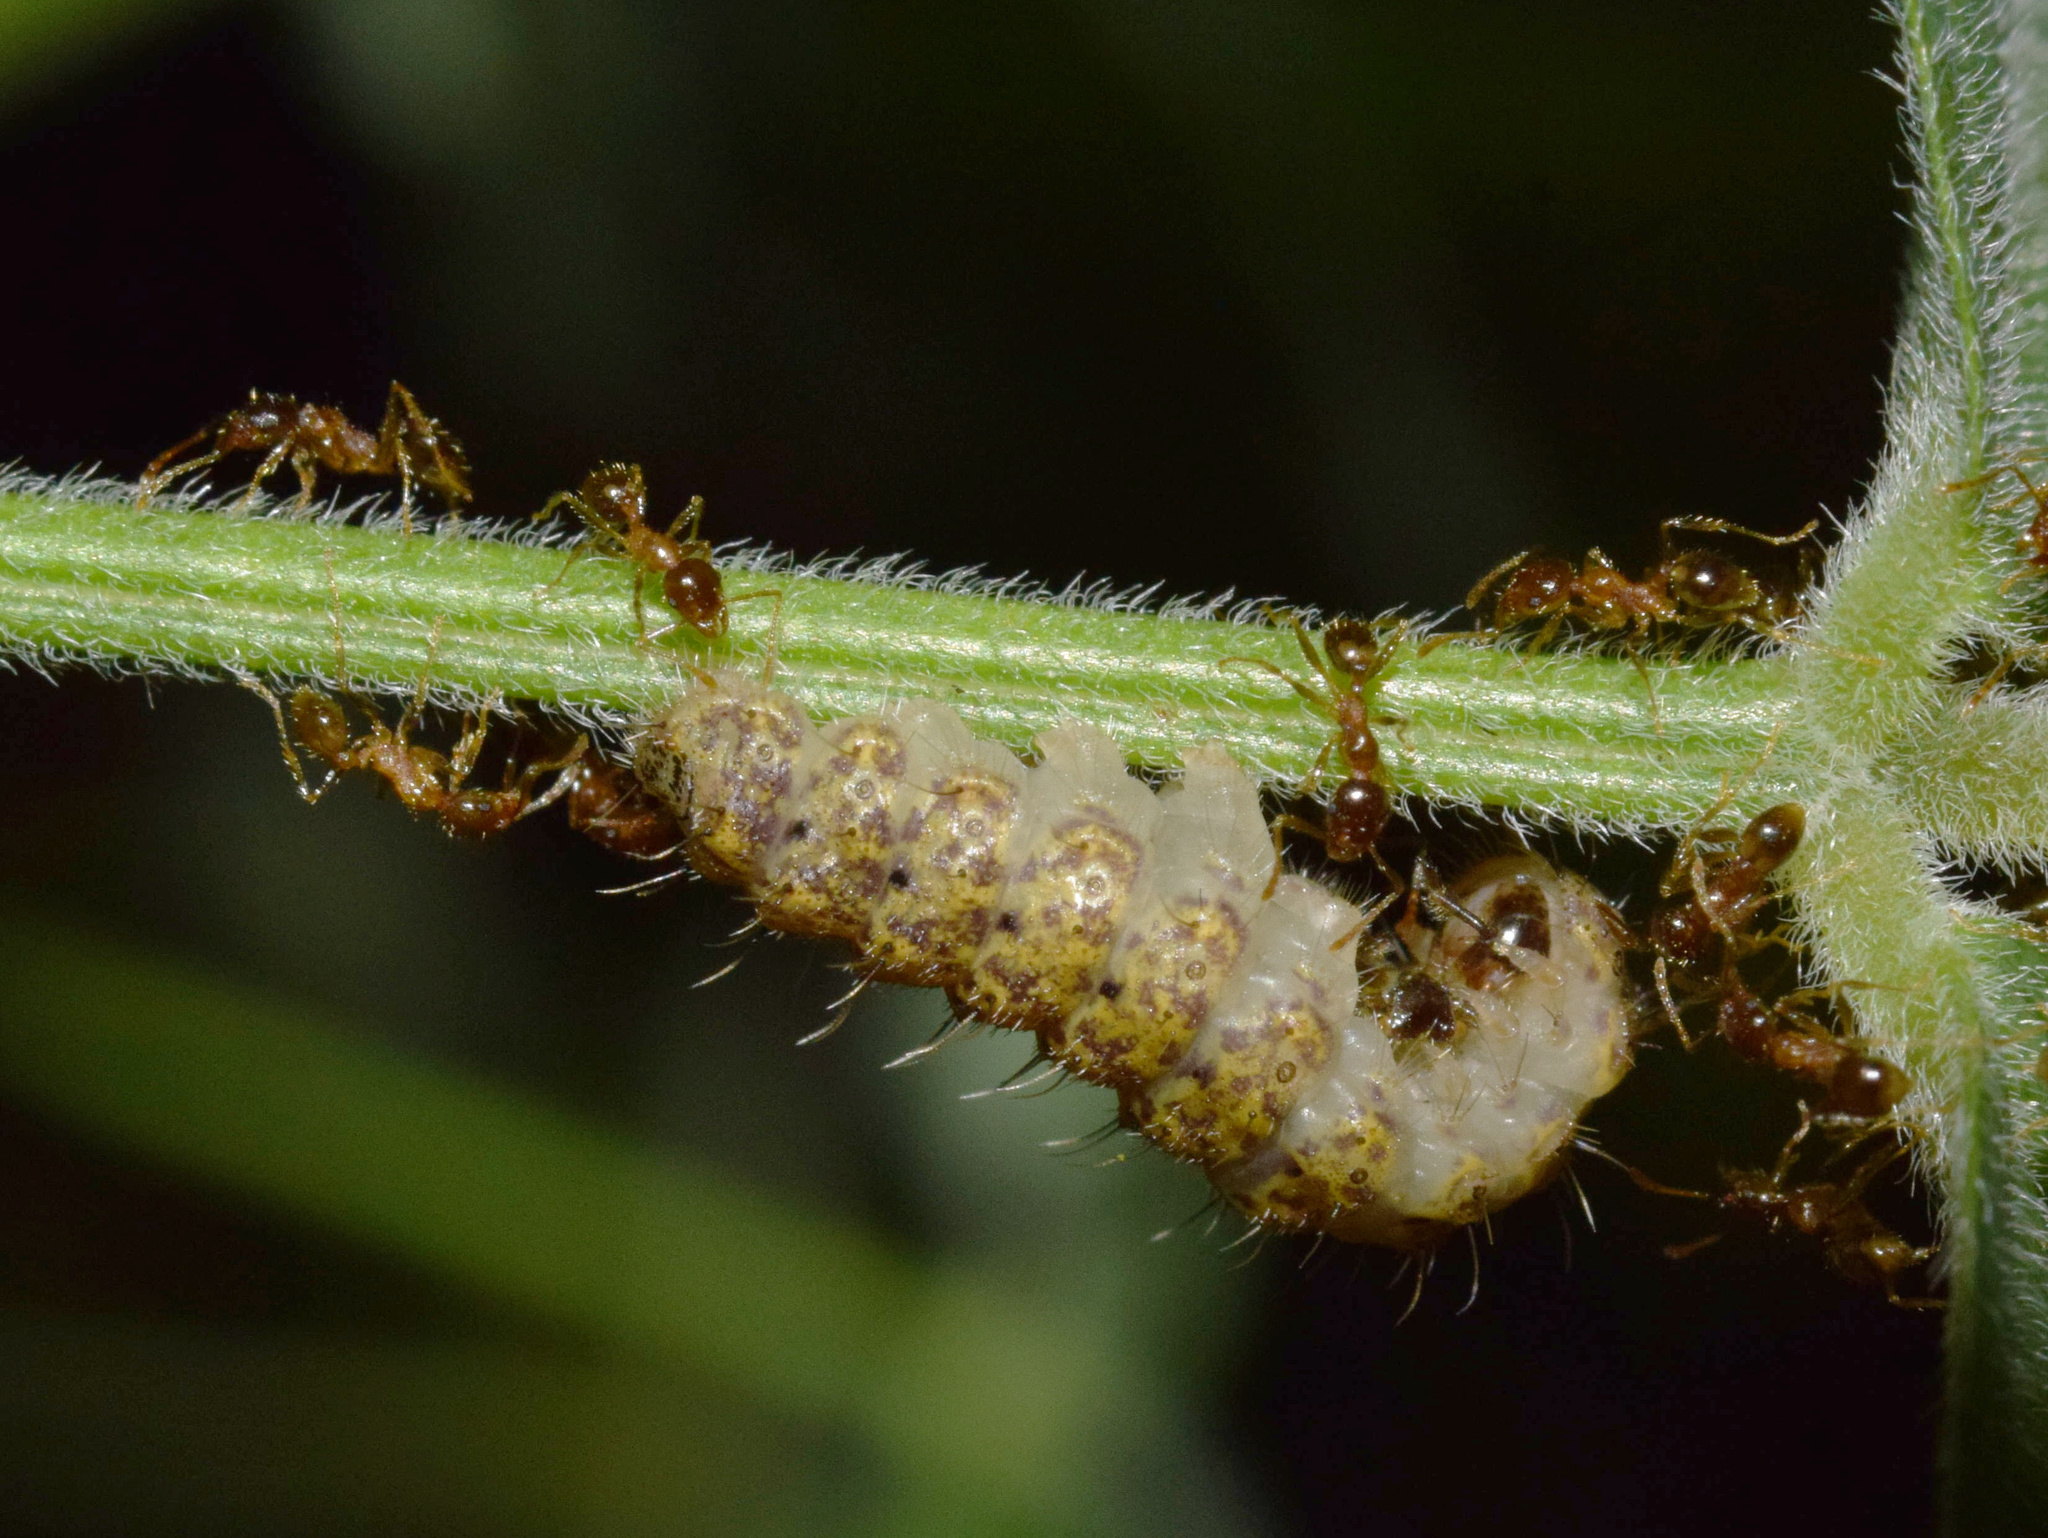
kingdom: Animalia
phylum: Arthropoda
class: Insecta
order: Lepidoptera
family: Lycaenidae
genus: Lachnocnema
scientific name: Lachnocnema bibulus
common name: Common woolly legs
